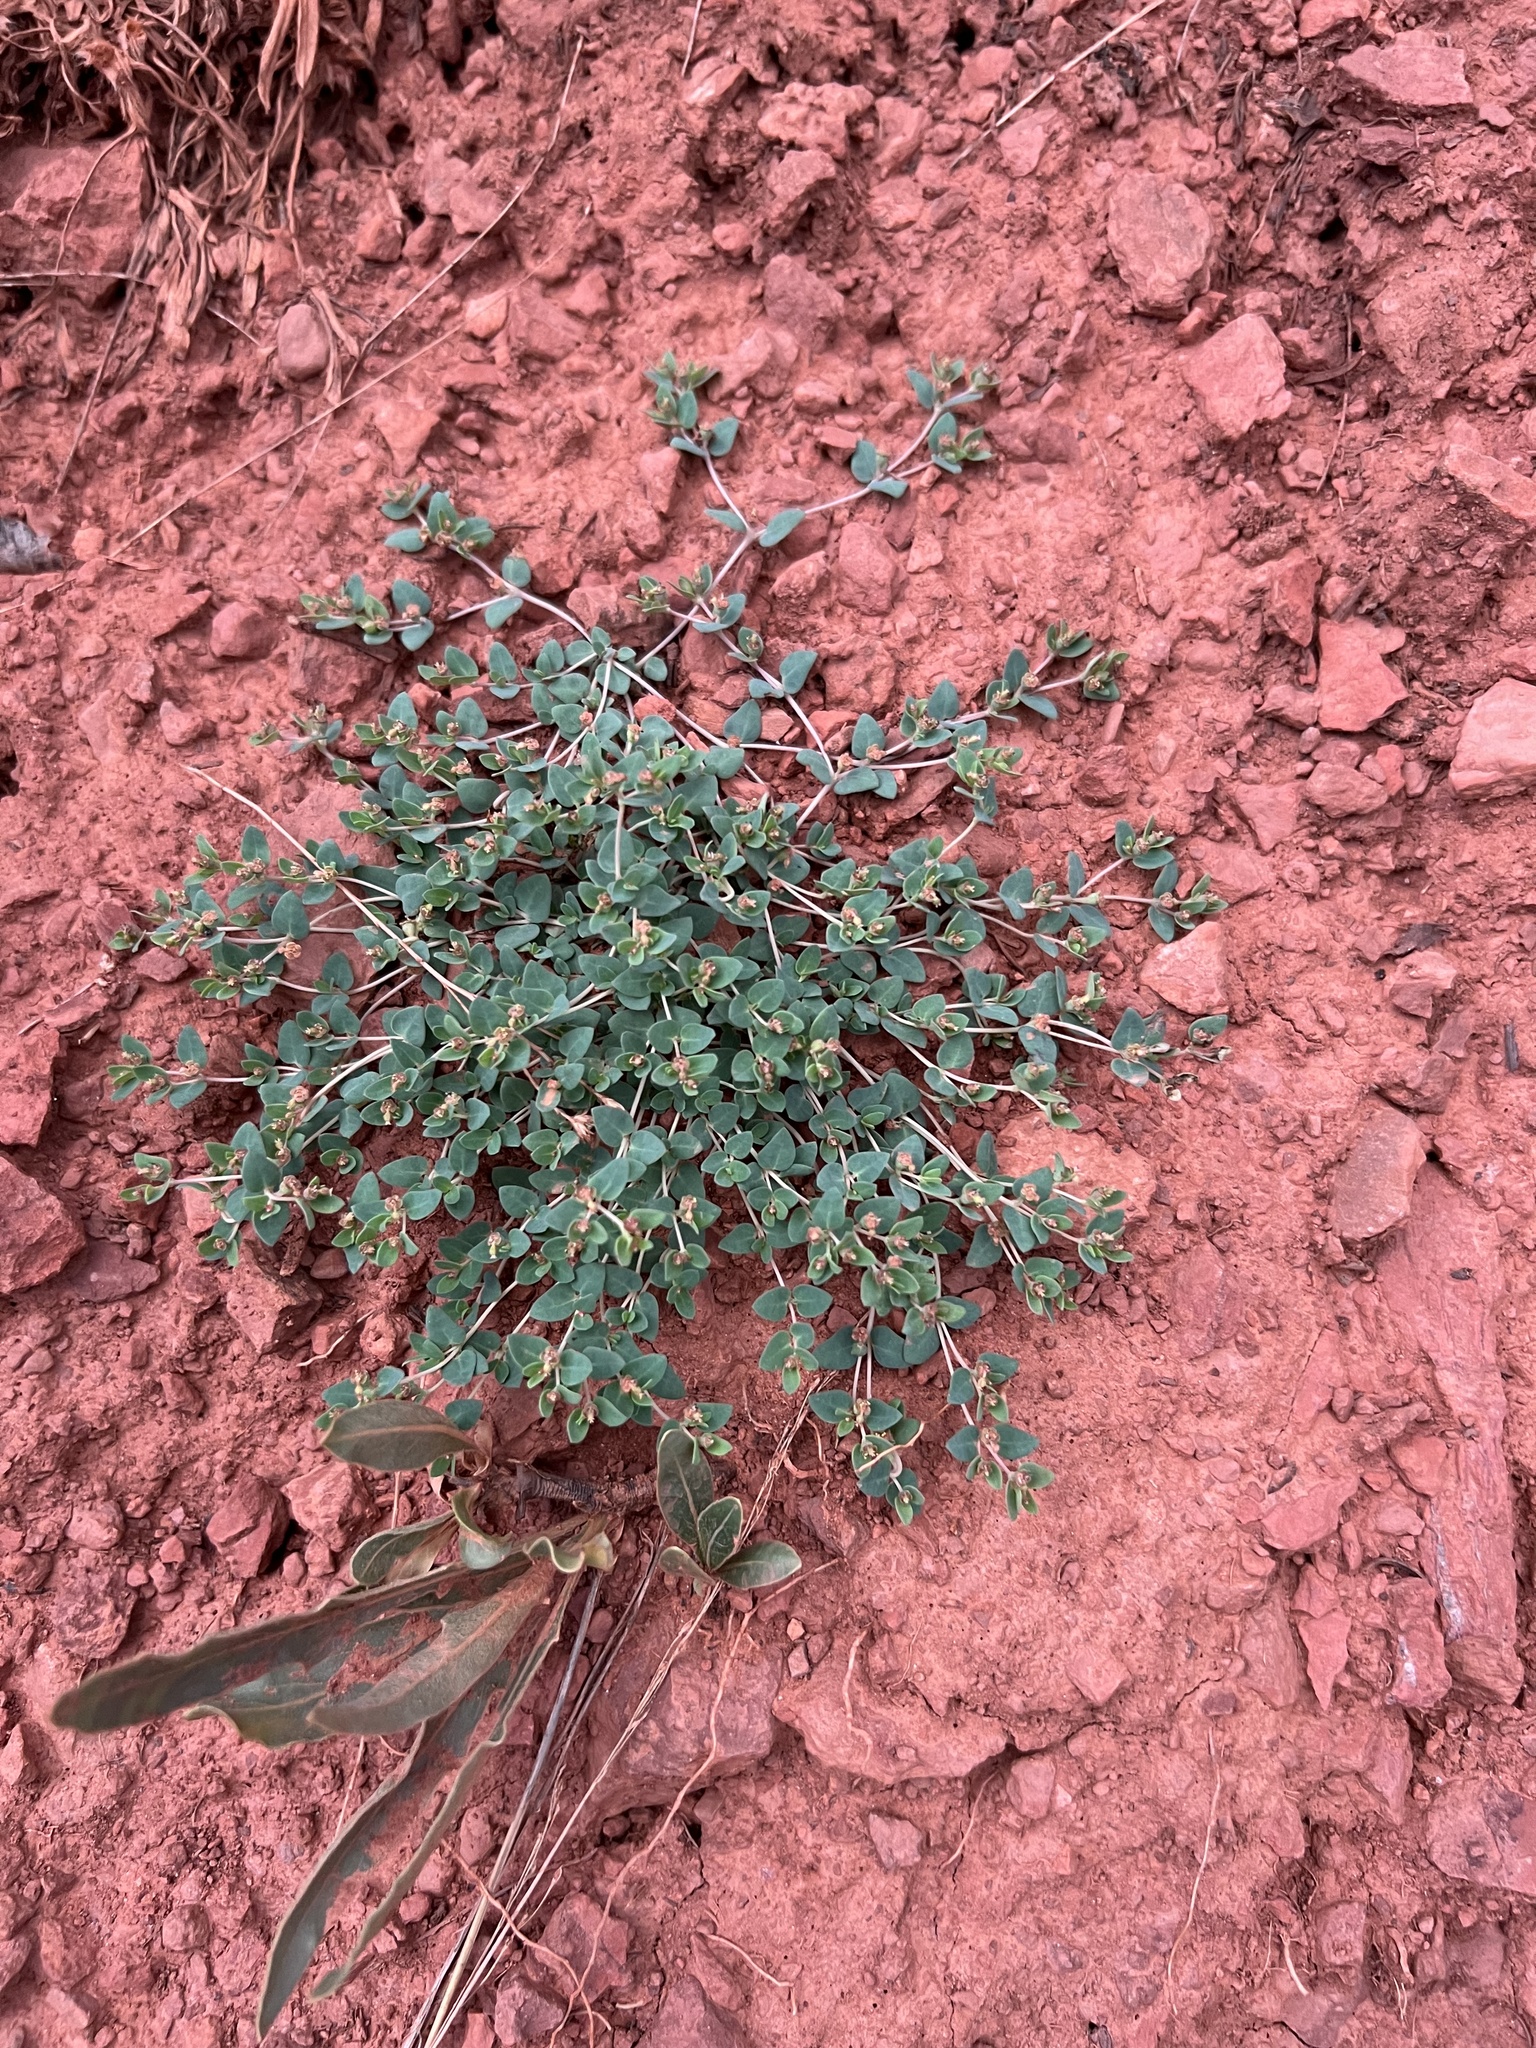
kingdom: Plantae
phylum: Tracheophyta
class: Magnoliopsida
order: Malpighiales
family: Euphorbiaceae
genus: Euphorbia
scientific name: Euphorbia fendleri
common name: Fendler's euphorbia
